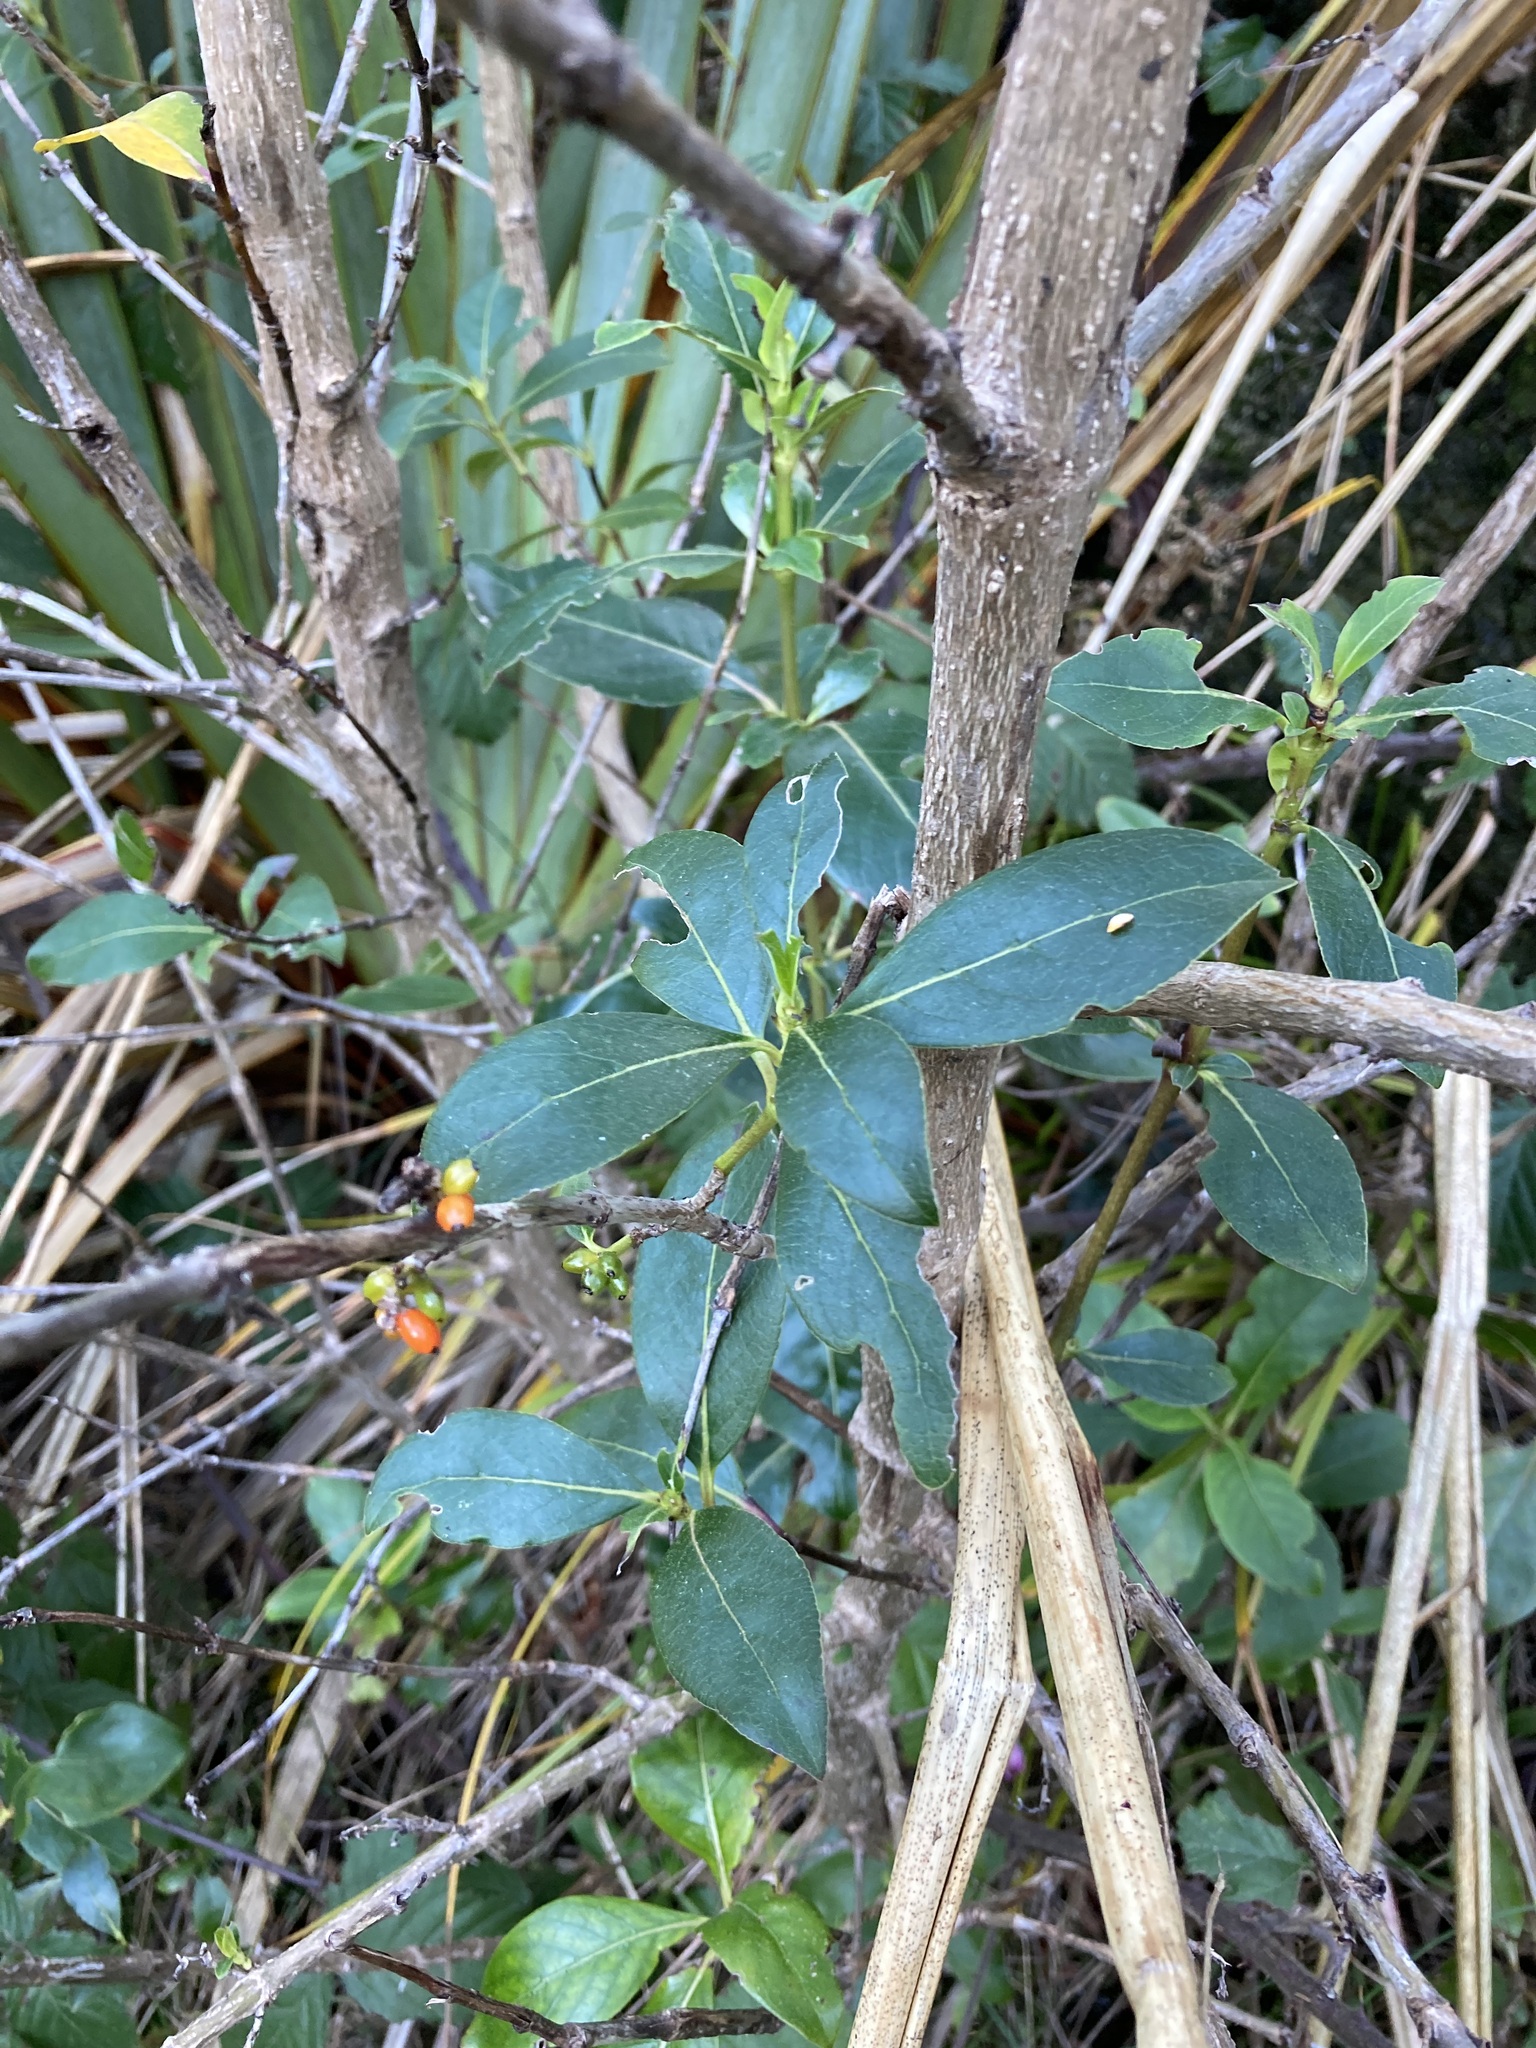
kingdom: Plantae
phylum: Tracheophyta
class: Magnoliopsida
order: Gentianales
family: Rubiaceae
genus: Coprosma
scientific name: Coprosma robusta
